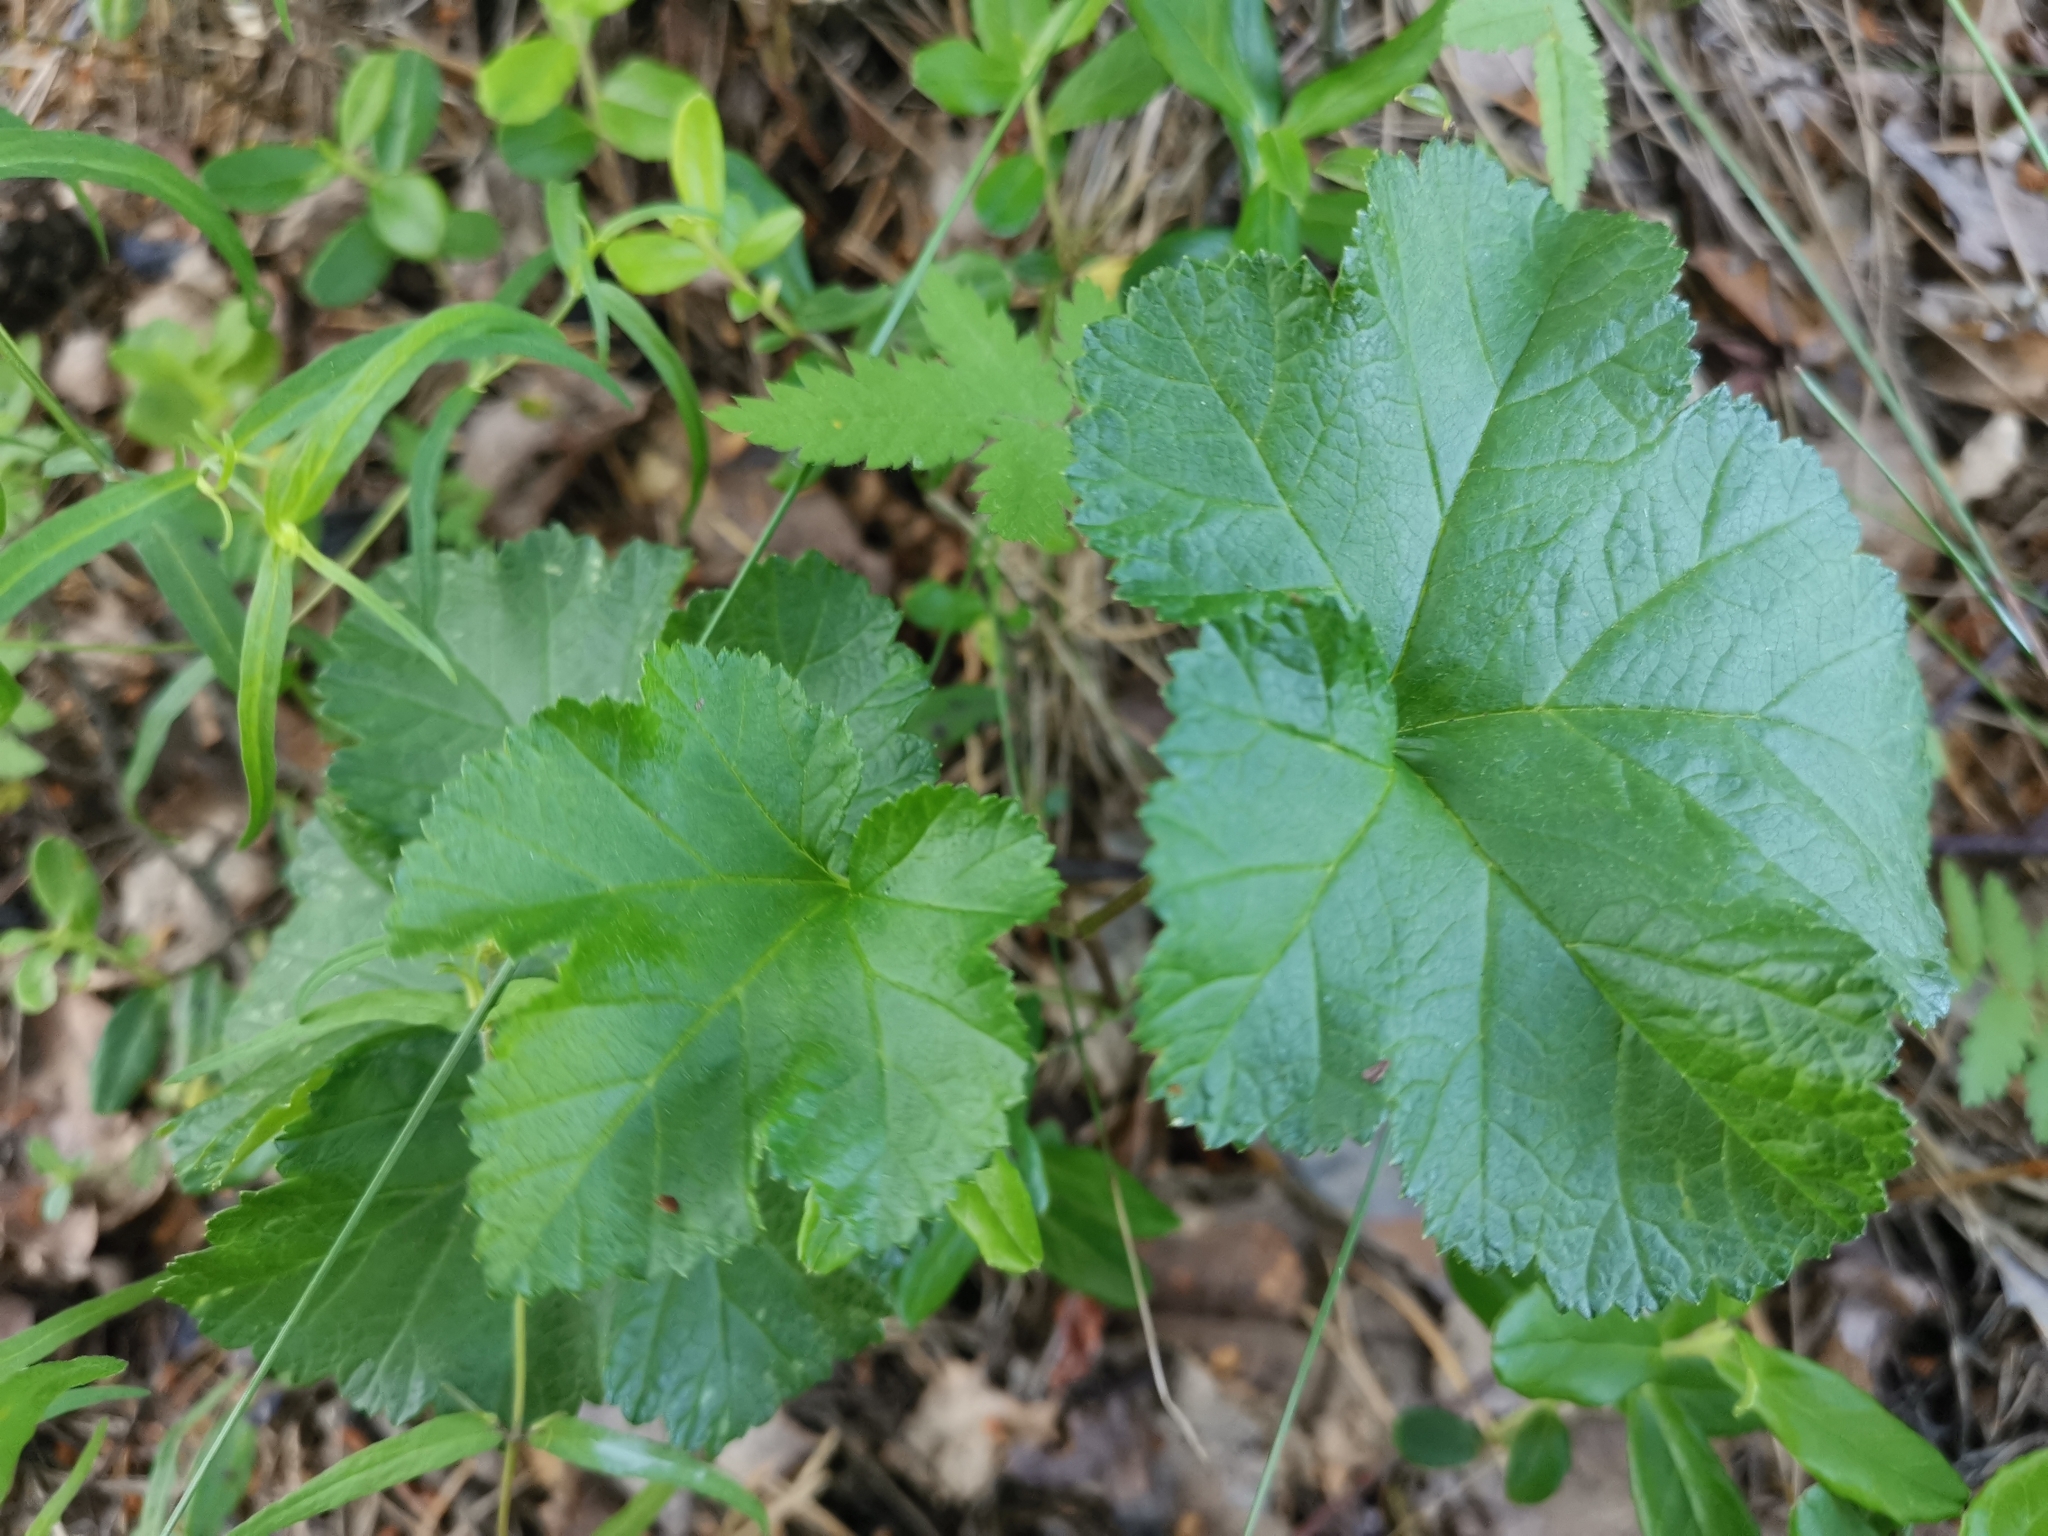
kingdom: Plantae
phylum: Tracheophyta
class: Magnoliopsida
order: Rosales
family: Rosaceae
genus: Rubus
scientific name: Rubus chamaemorus
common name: Cloudberry
